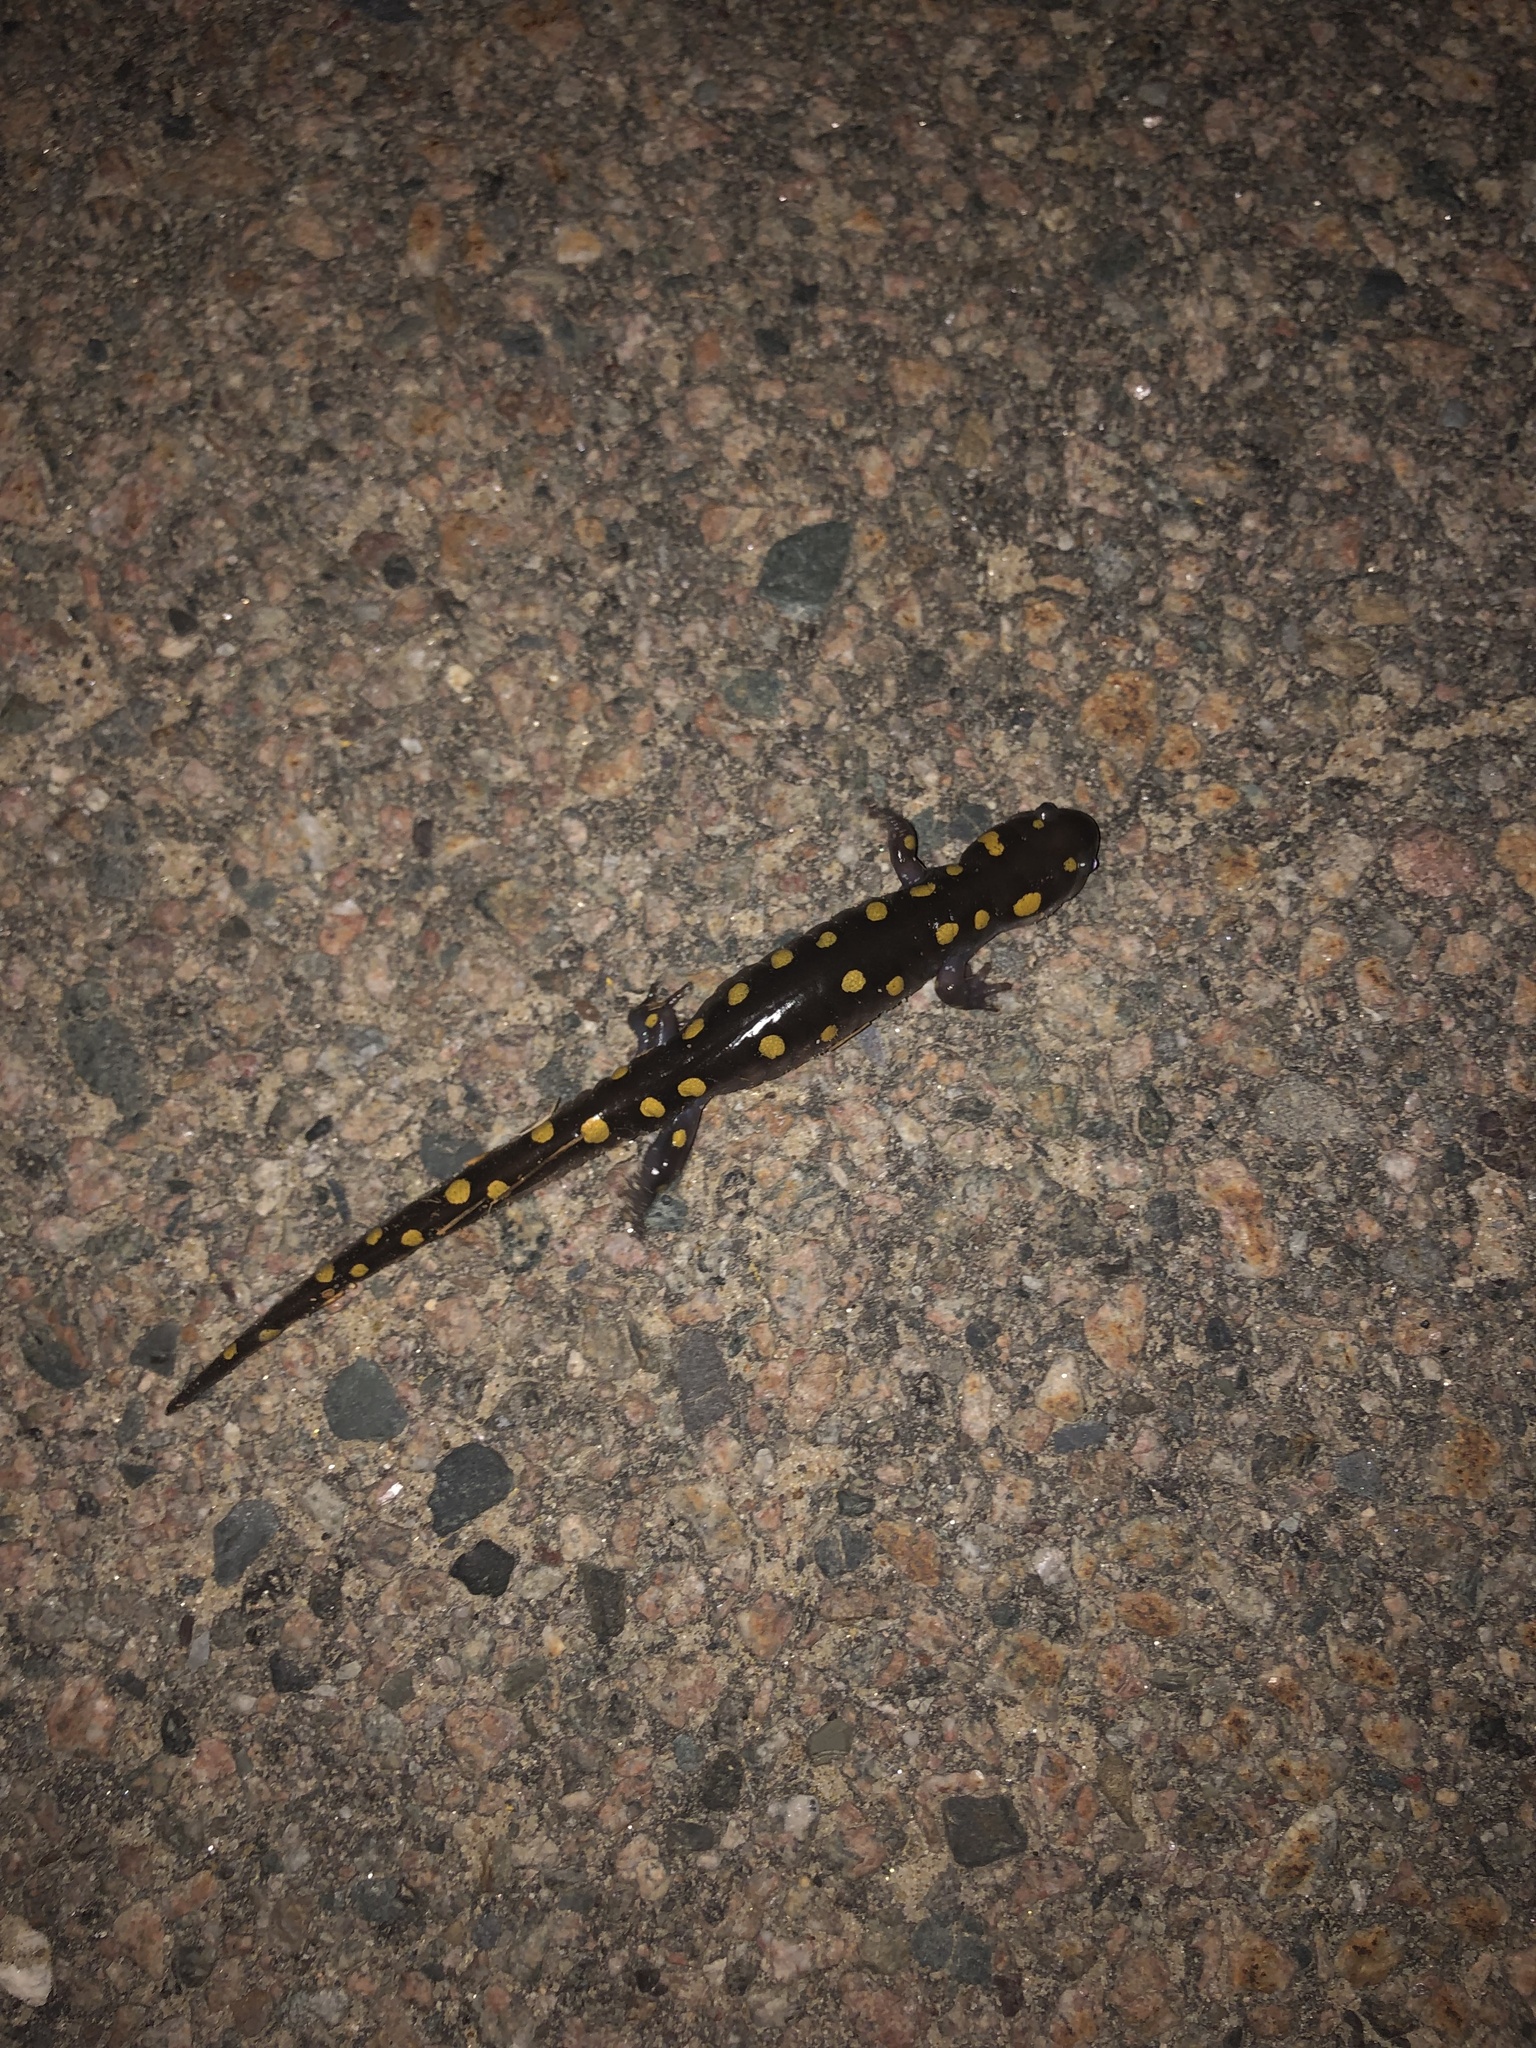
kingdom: Animalia
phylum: Chordata
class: Amphibia
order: Caudata
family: Ambystomatidae
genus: Ambystoma
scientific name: Ambystoma maculatum
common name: Spotted salamander
